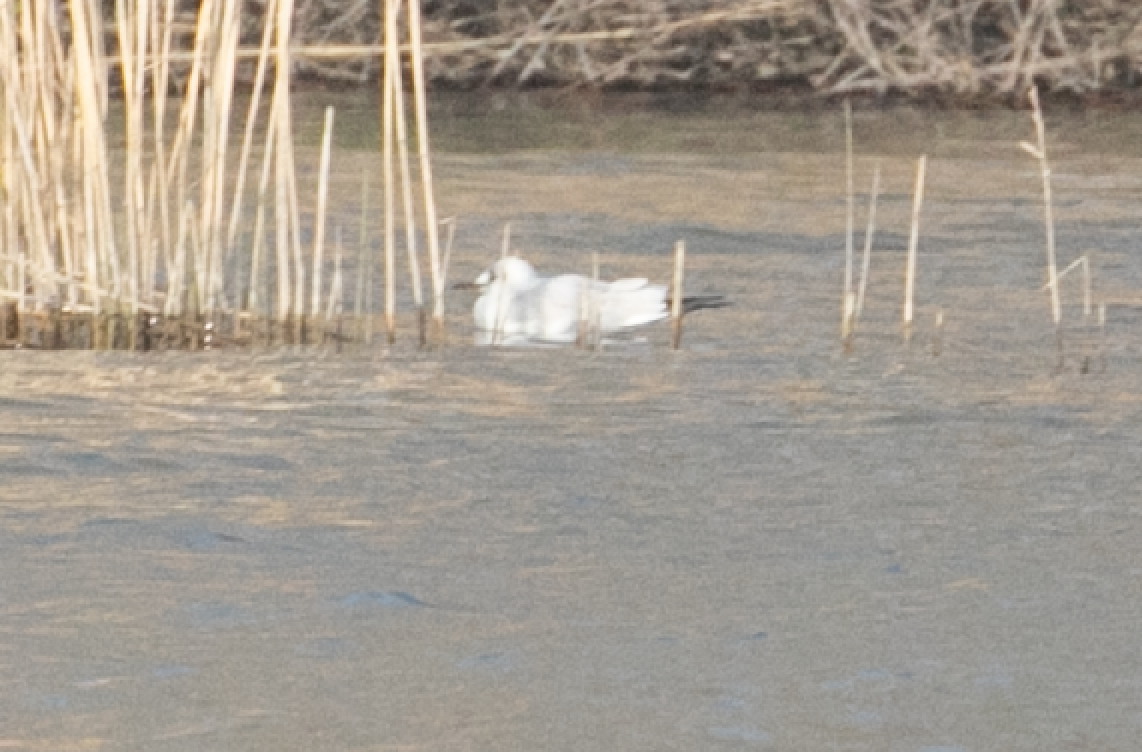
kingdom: Animalia
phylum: Chordata
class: Aves
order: Charadriiformes
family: Laridae
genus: Chroicocephalus
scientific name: Chroicocephalus ridibundus
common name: Black-headed gull
